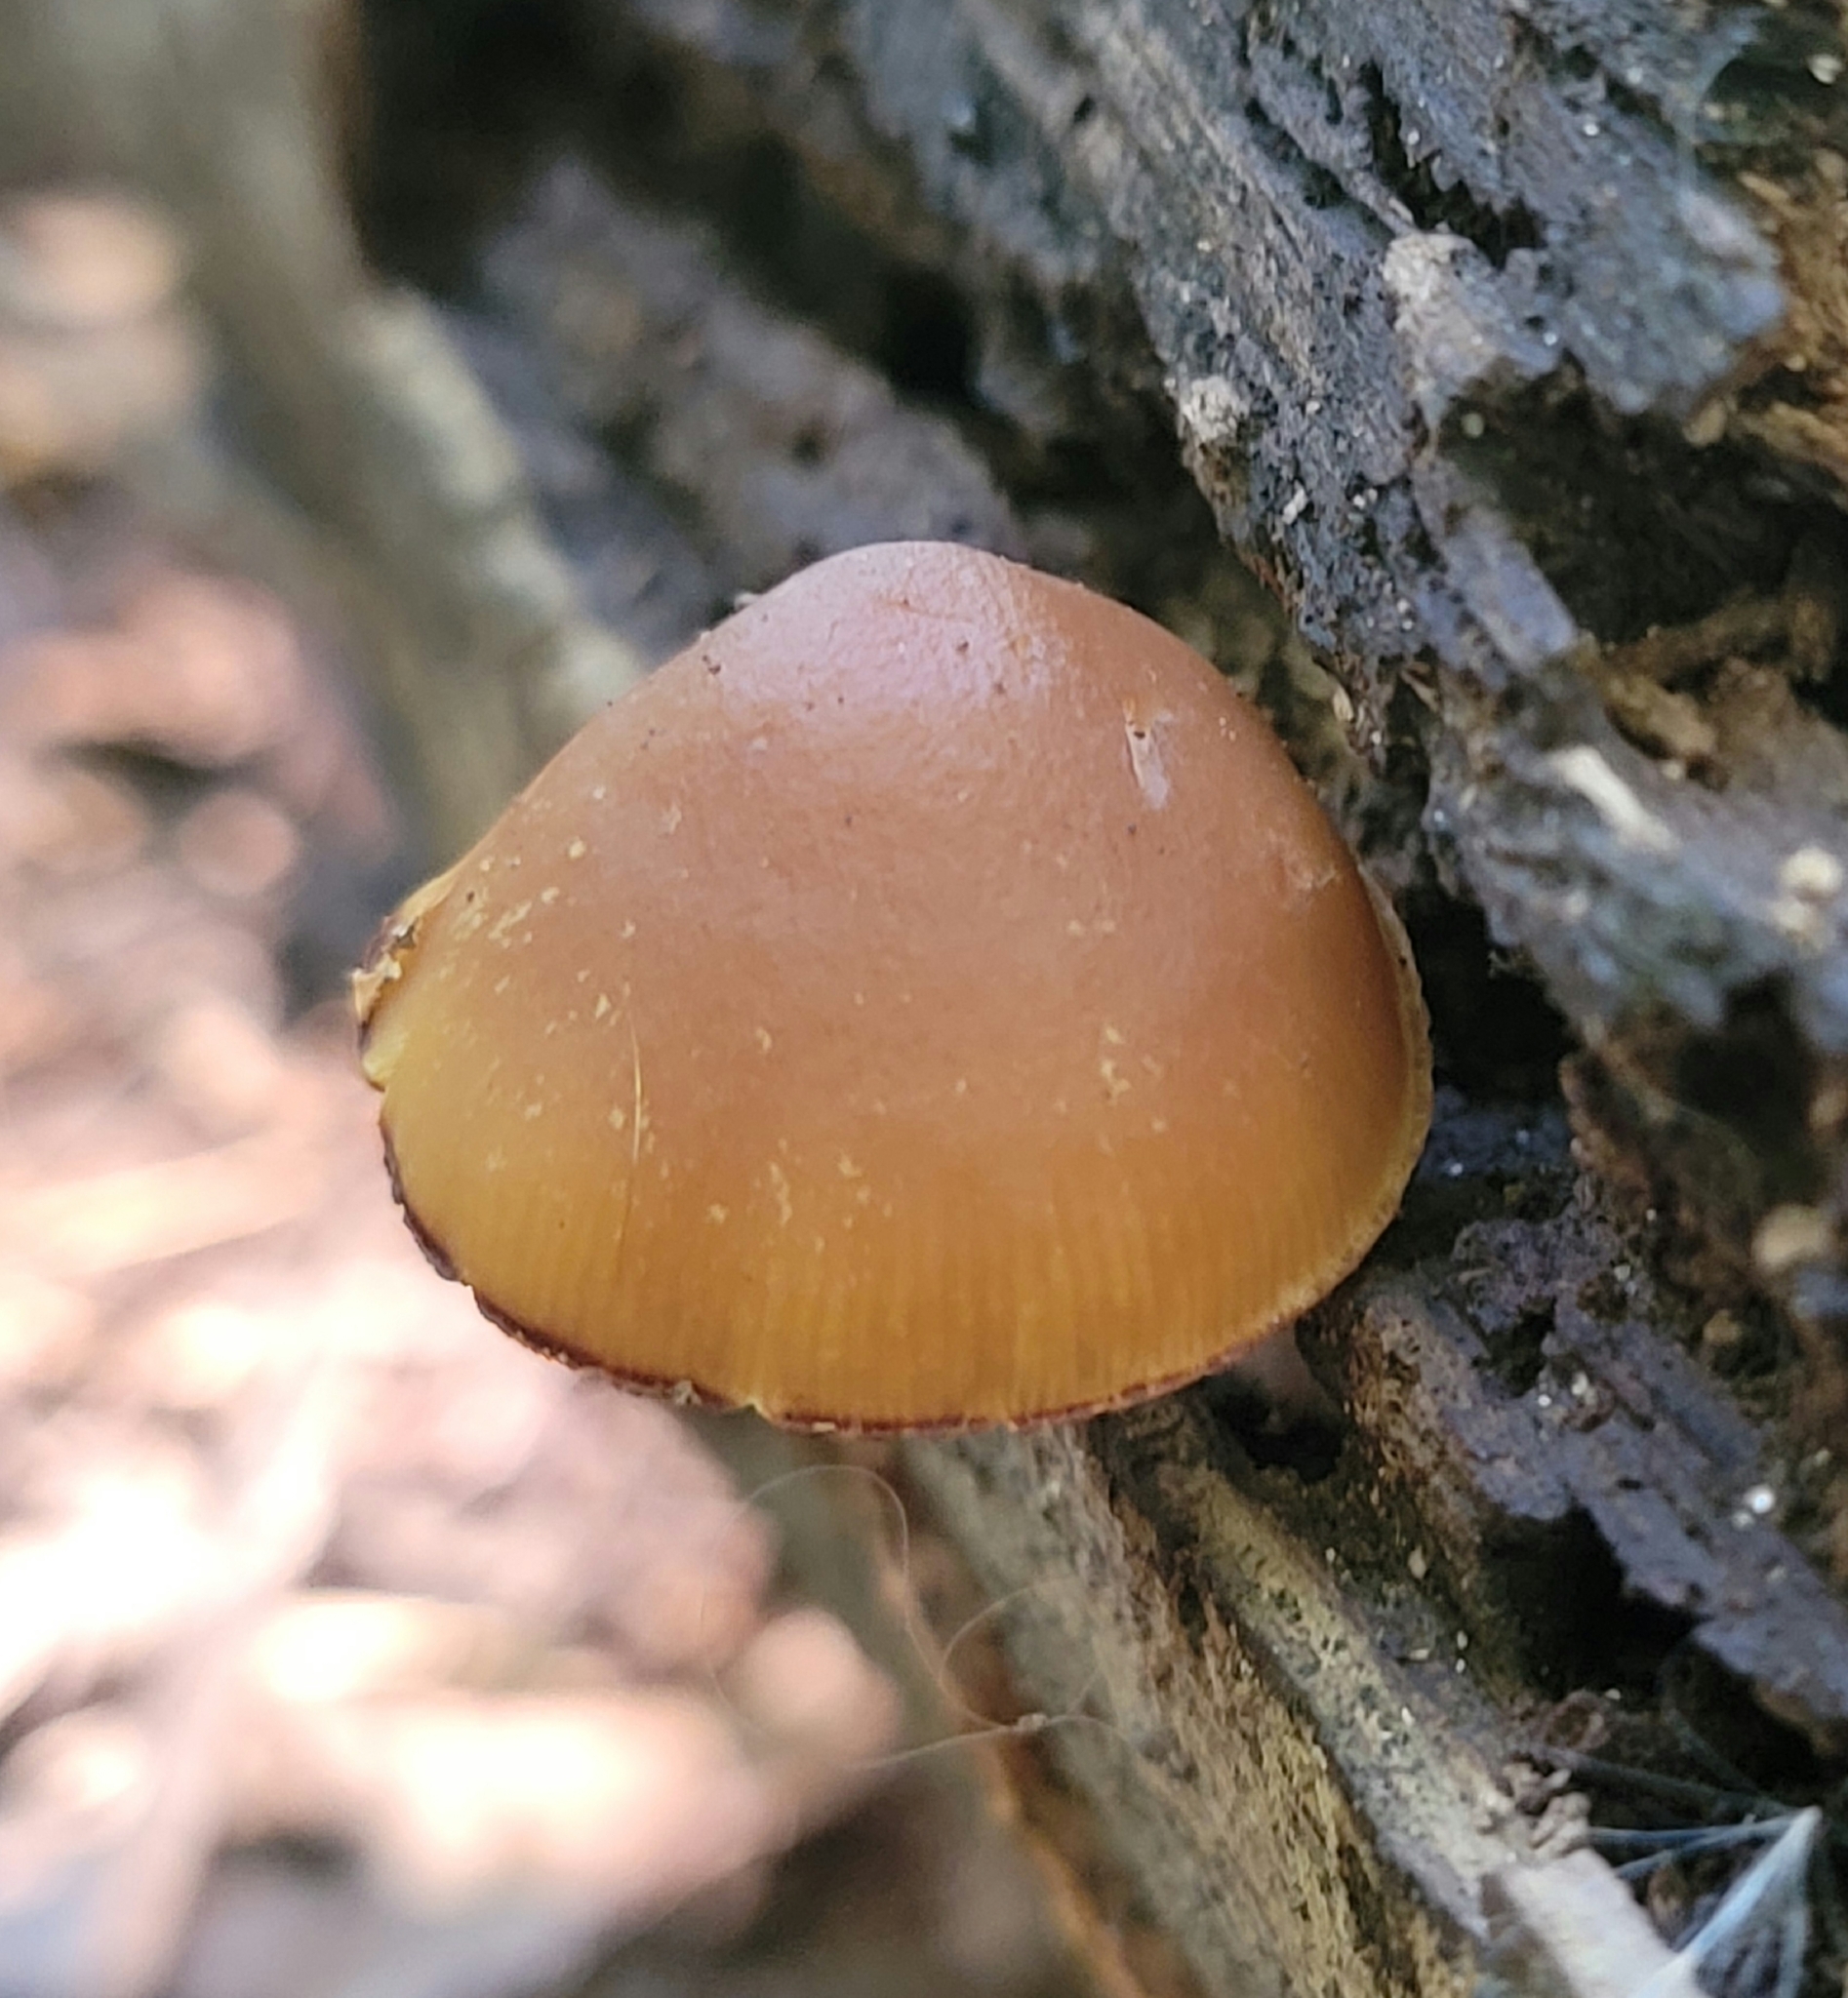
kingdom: Fungi
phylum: Basidiomycota
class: Agaricomycetes
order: Agaricales
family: Hymenogastraceae
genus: Galerina
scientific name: Galerina marginata
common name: Funeral bell
